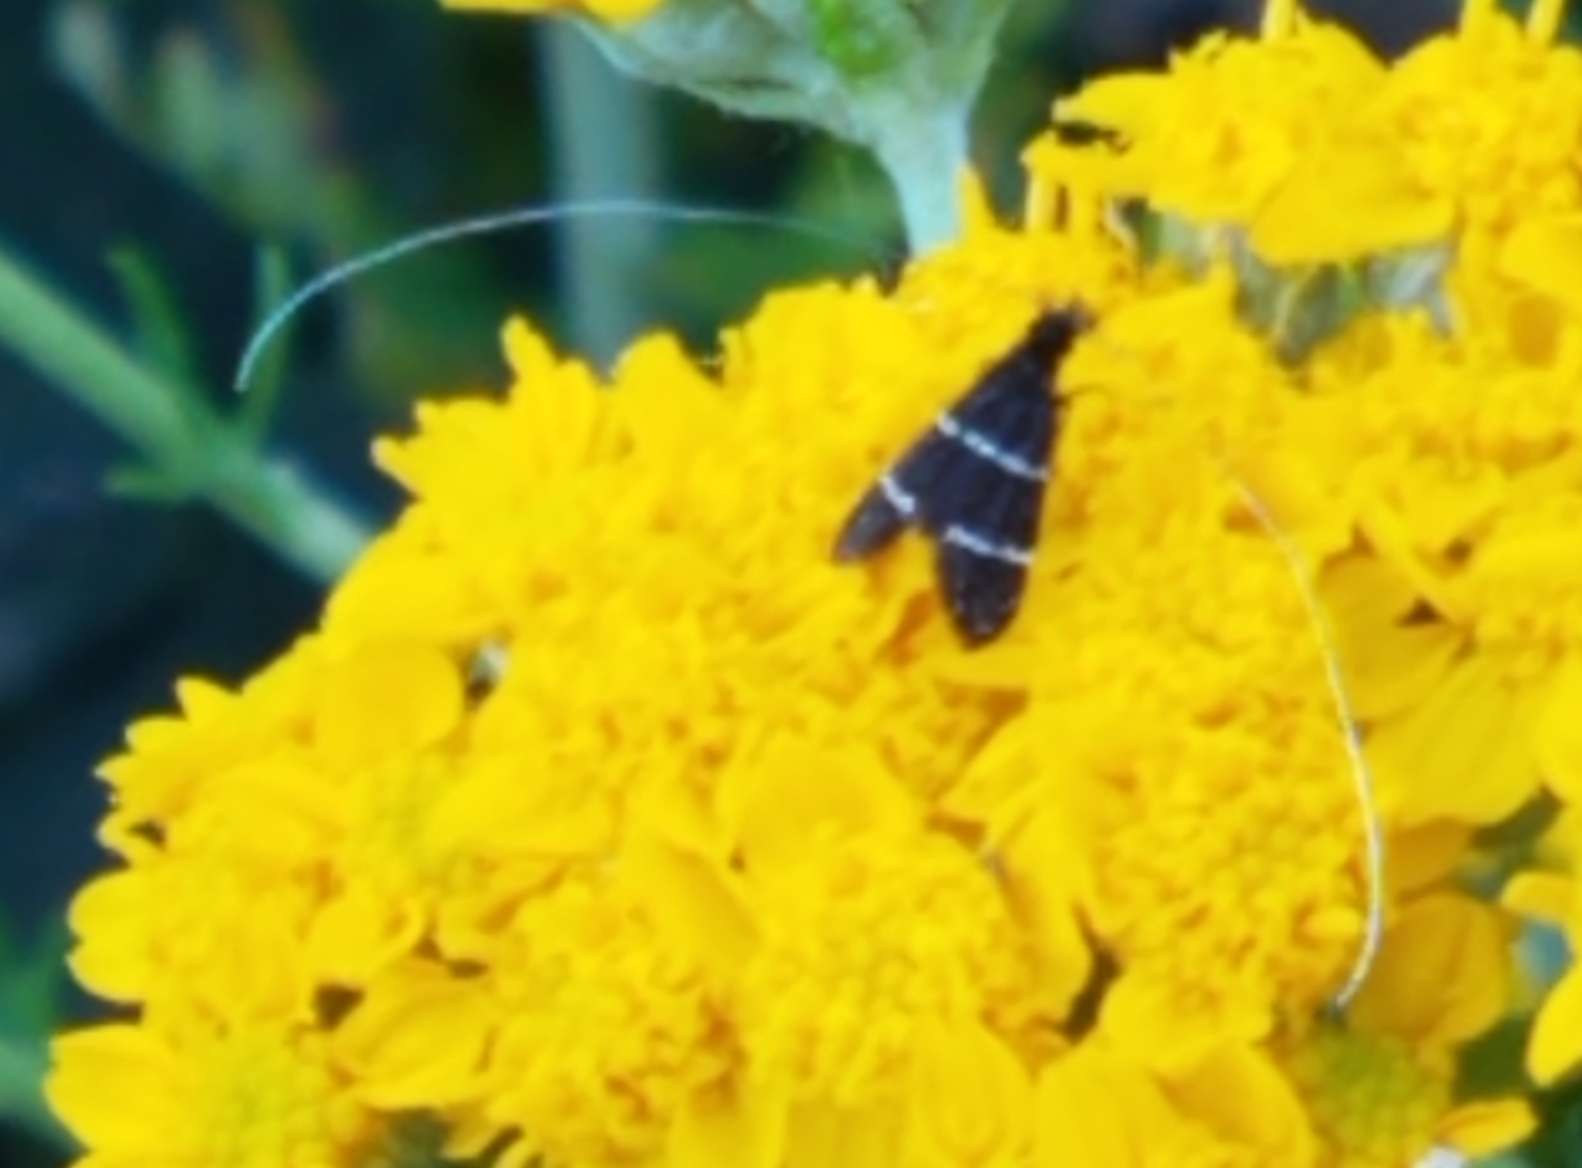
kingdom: Animalia
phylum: Arthropoda
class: Insecta
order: Lepidoptera
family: Adelidae
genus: Adela
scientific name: Adela septentrionella
